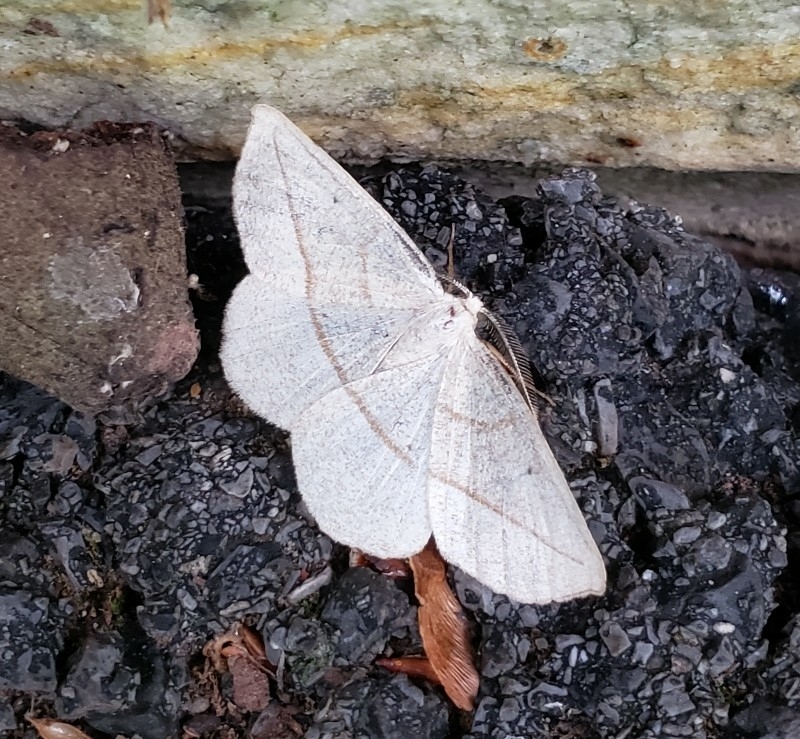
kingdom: Animalia
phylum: Arthropoda
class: Insecta
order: Lepidoptera
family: Geometridae
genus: Eusarca
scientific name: Eusarca confusaria
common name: Confused eusarca
